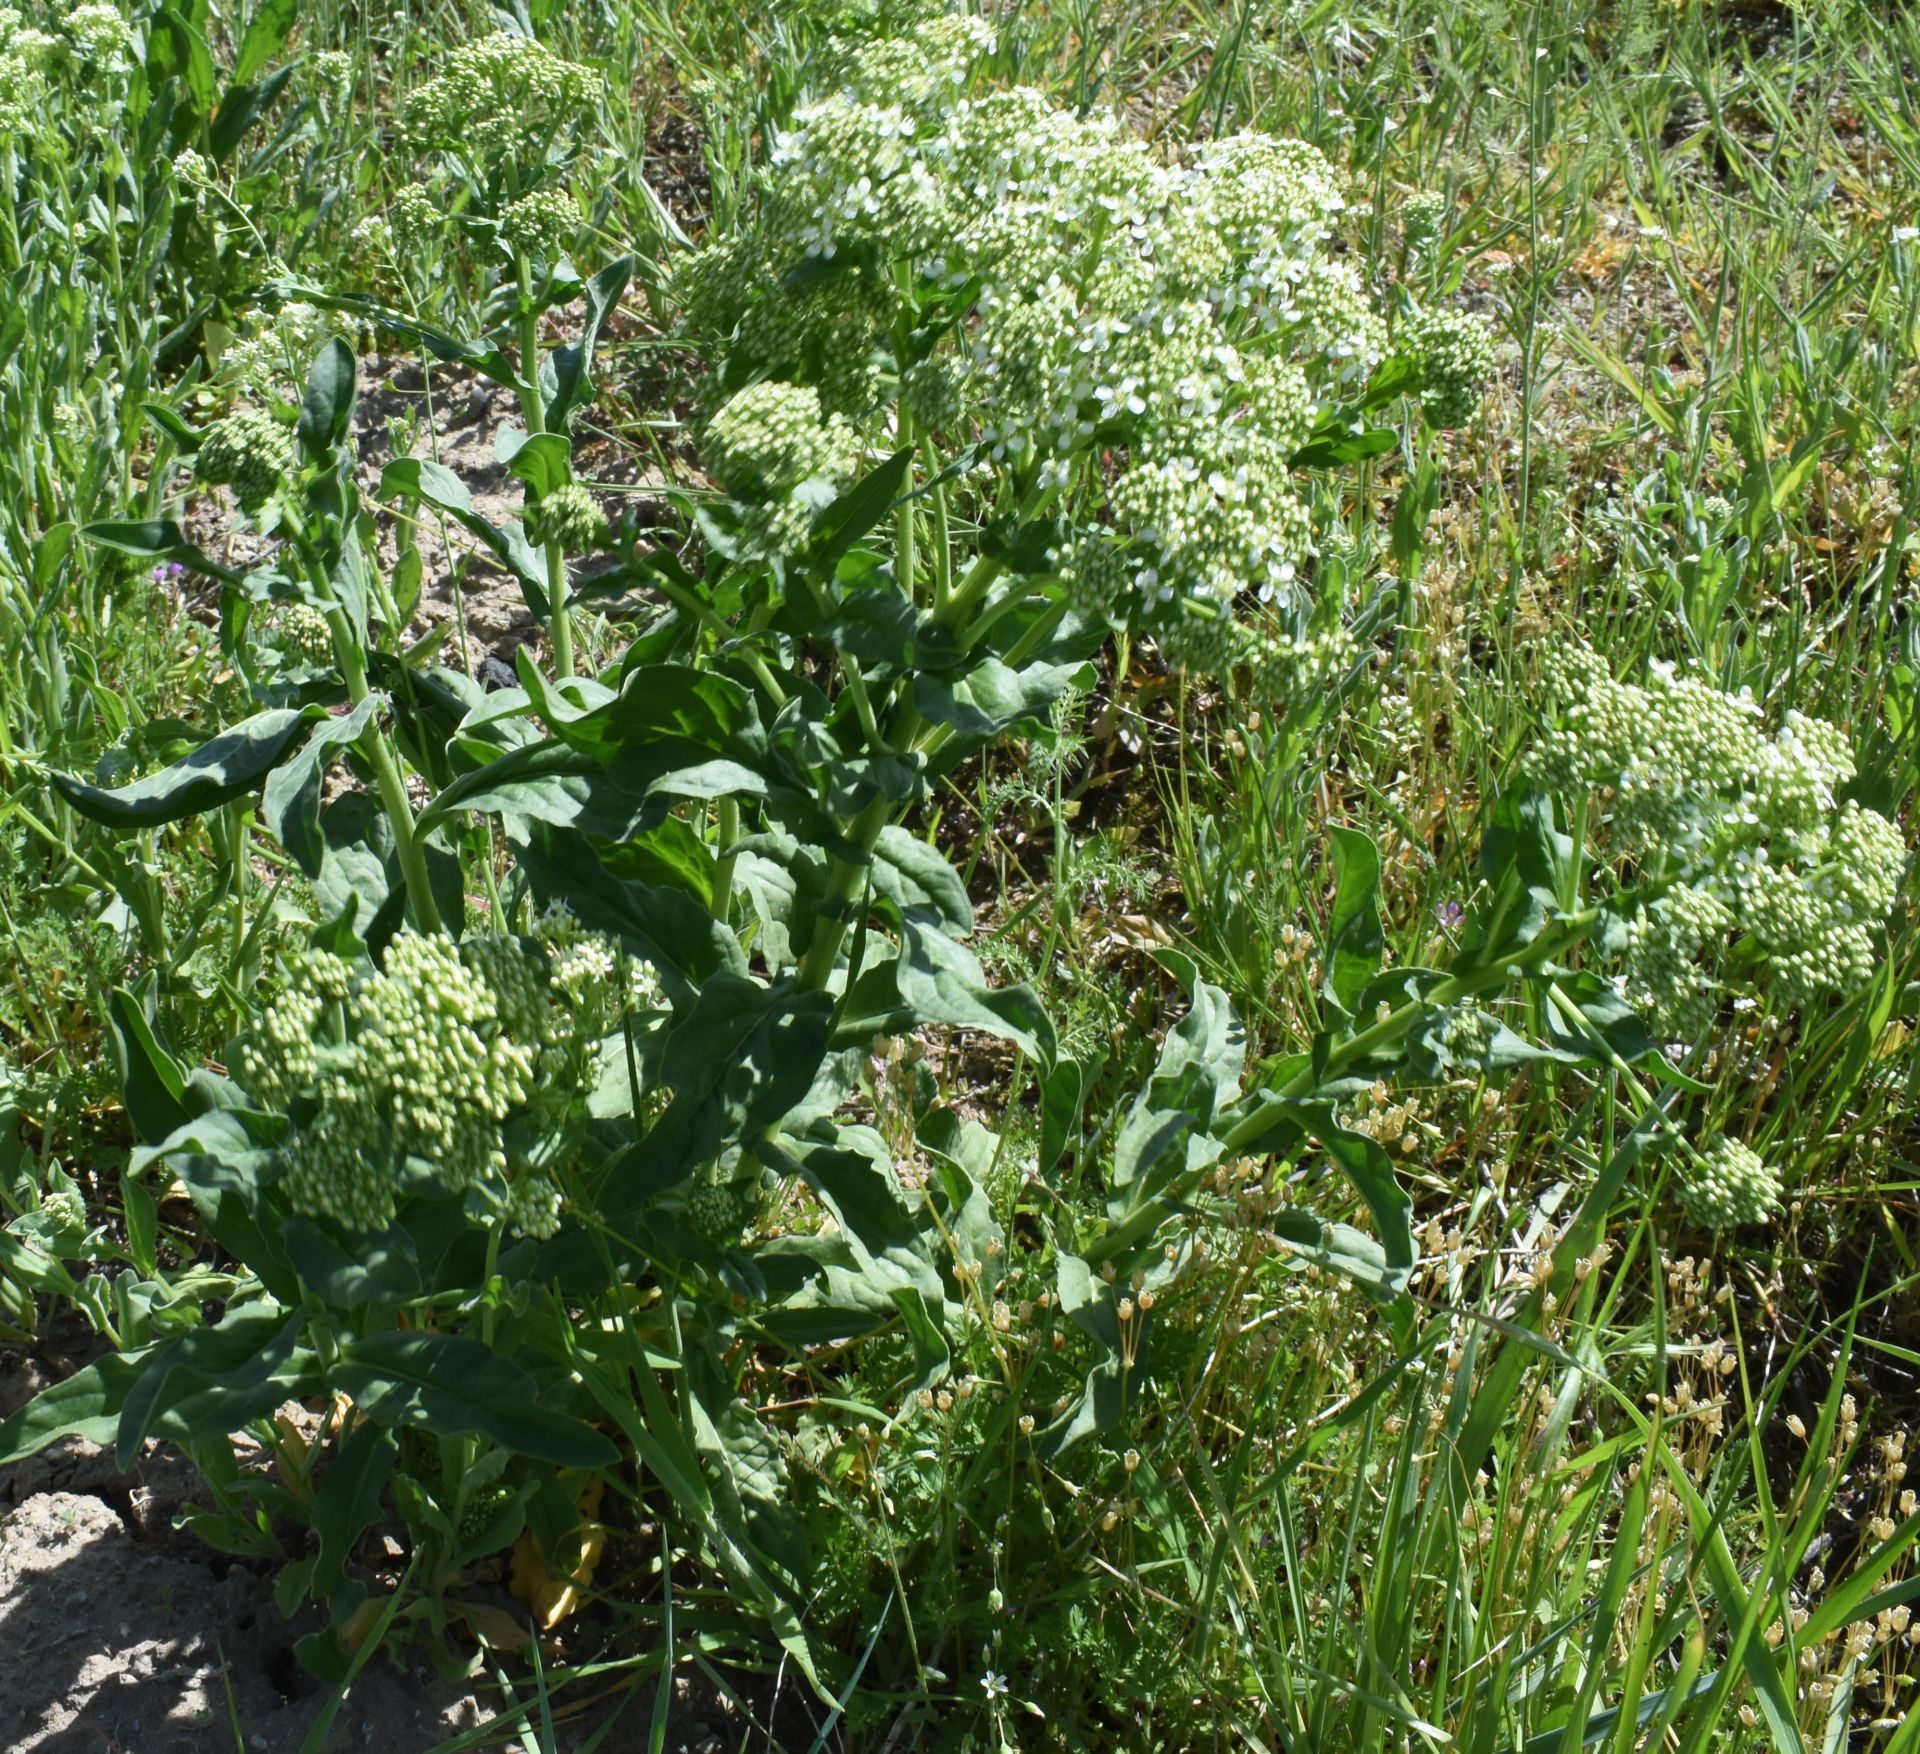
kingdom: Plantae
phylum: Tracheophyta
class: Magnoliopsida
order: Brassicales
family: Brassicaceae
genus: Lepidium
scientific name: Lepidium draba
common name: Hoary cress
